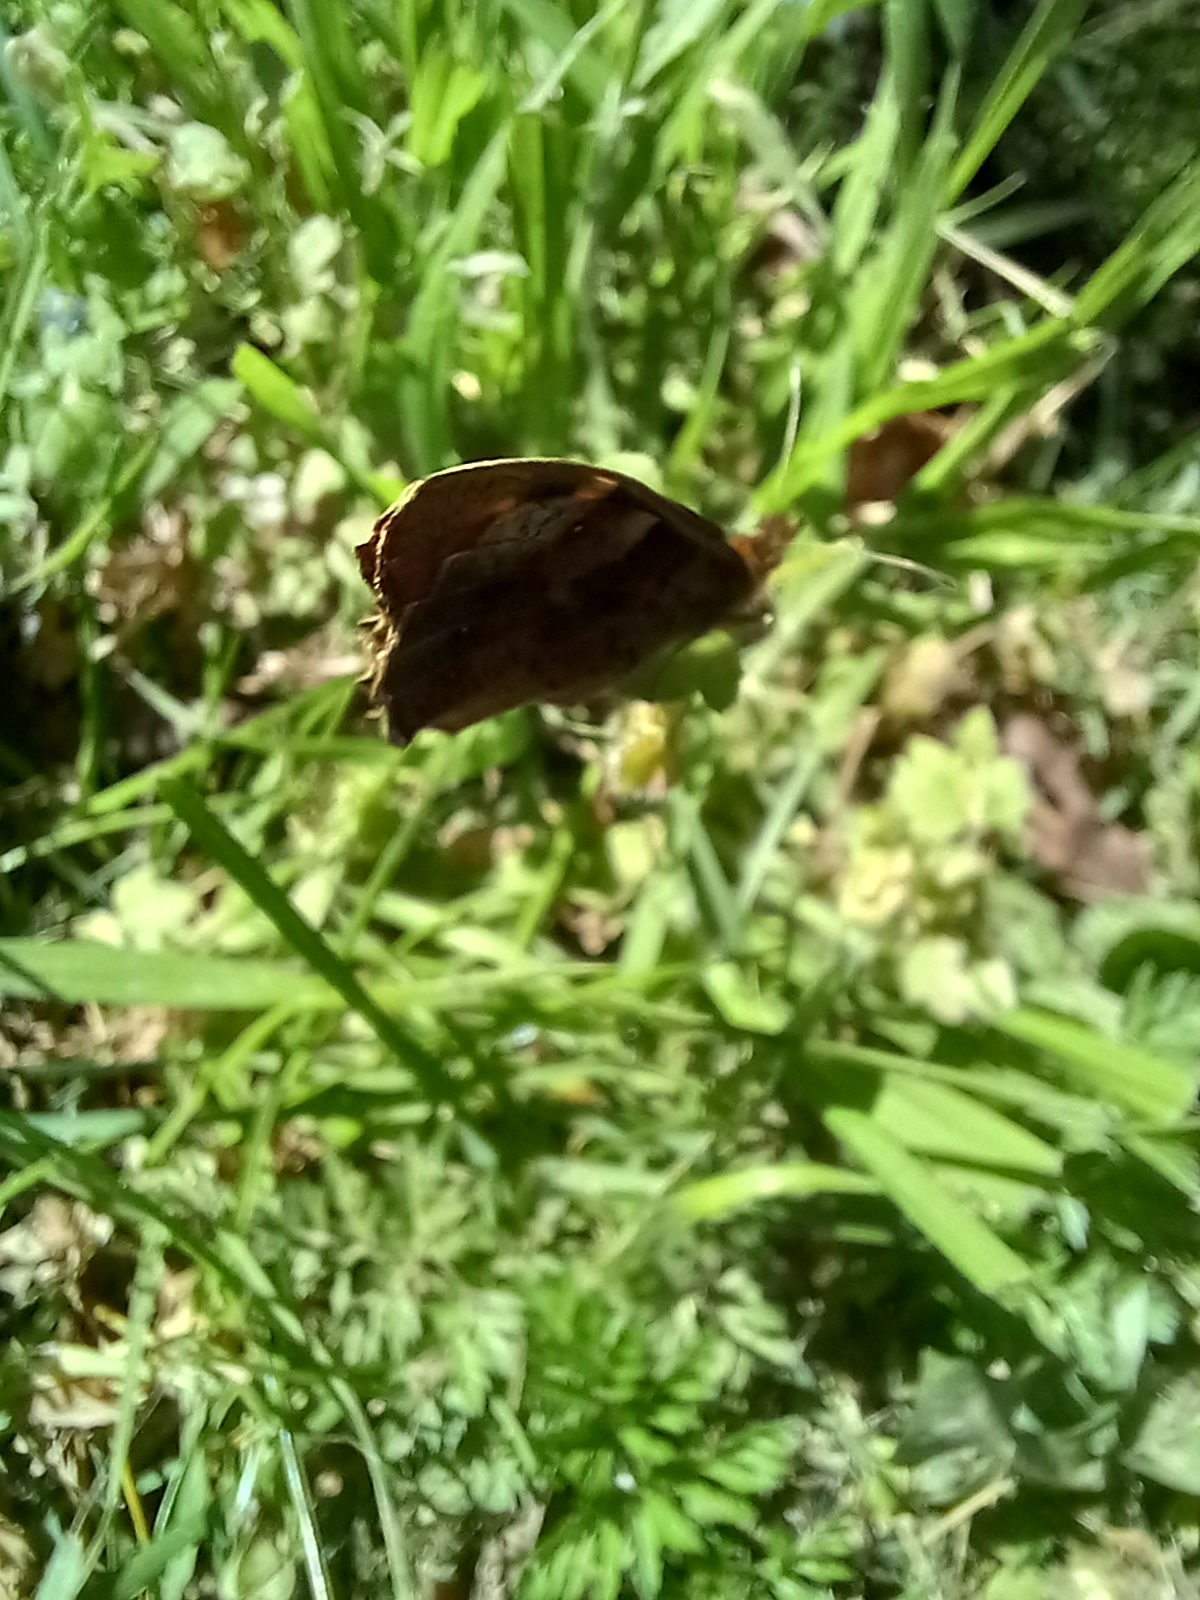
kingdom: Animalia
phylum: Arthropoda
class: Insecta
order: Lepidoptera
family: Nymphalidae
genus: Pararge
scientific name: Pararge aegeria
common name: Speckled wood
